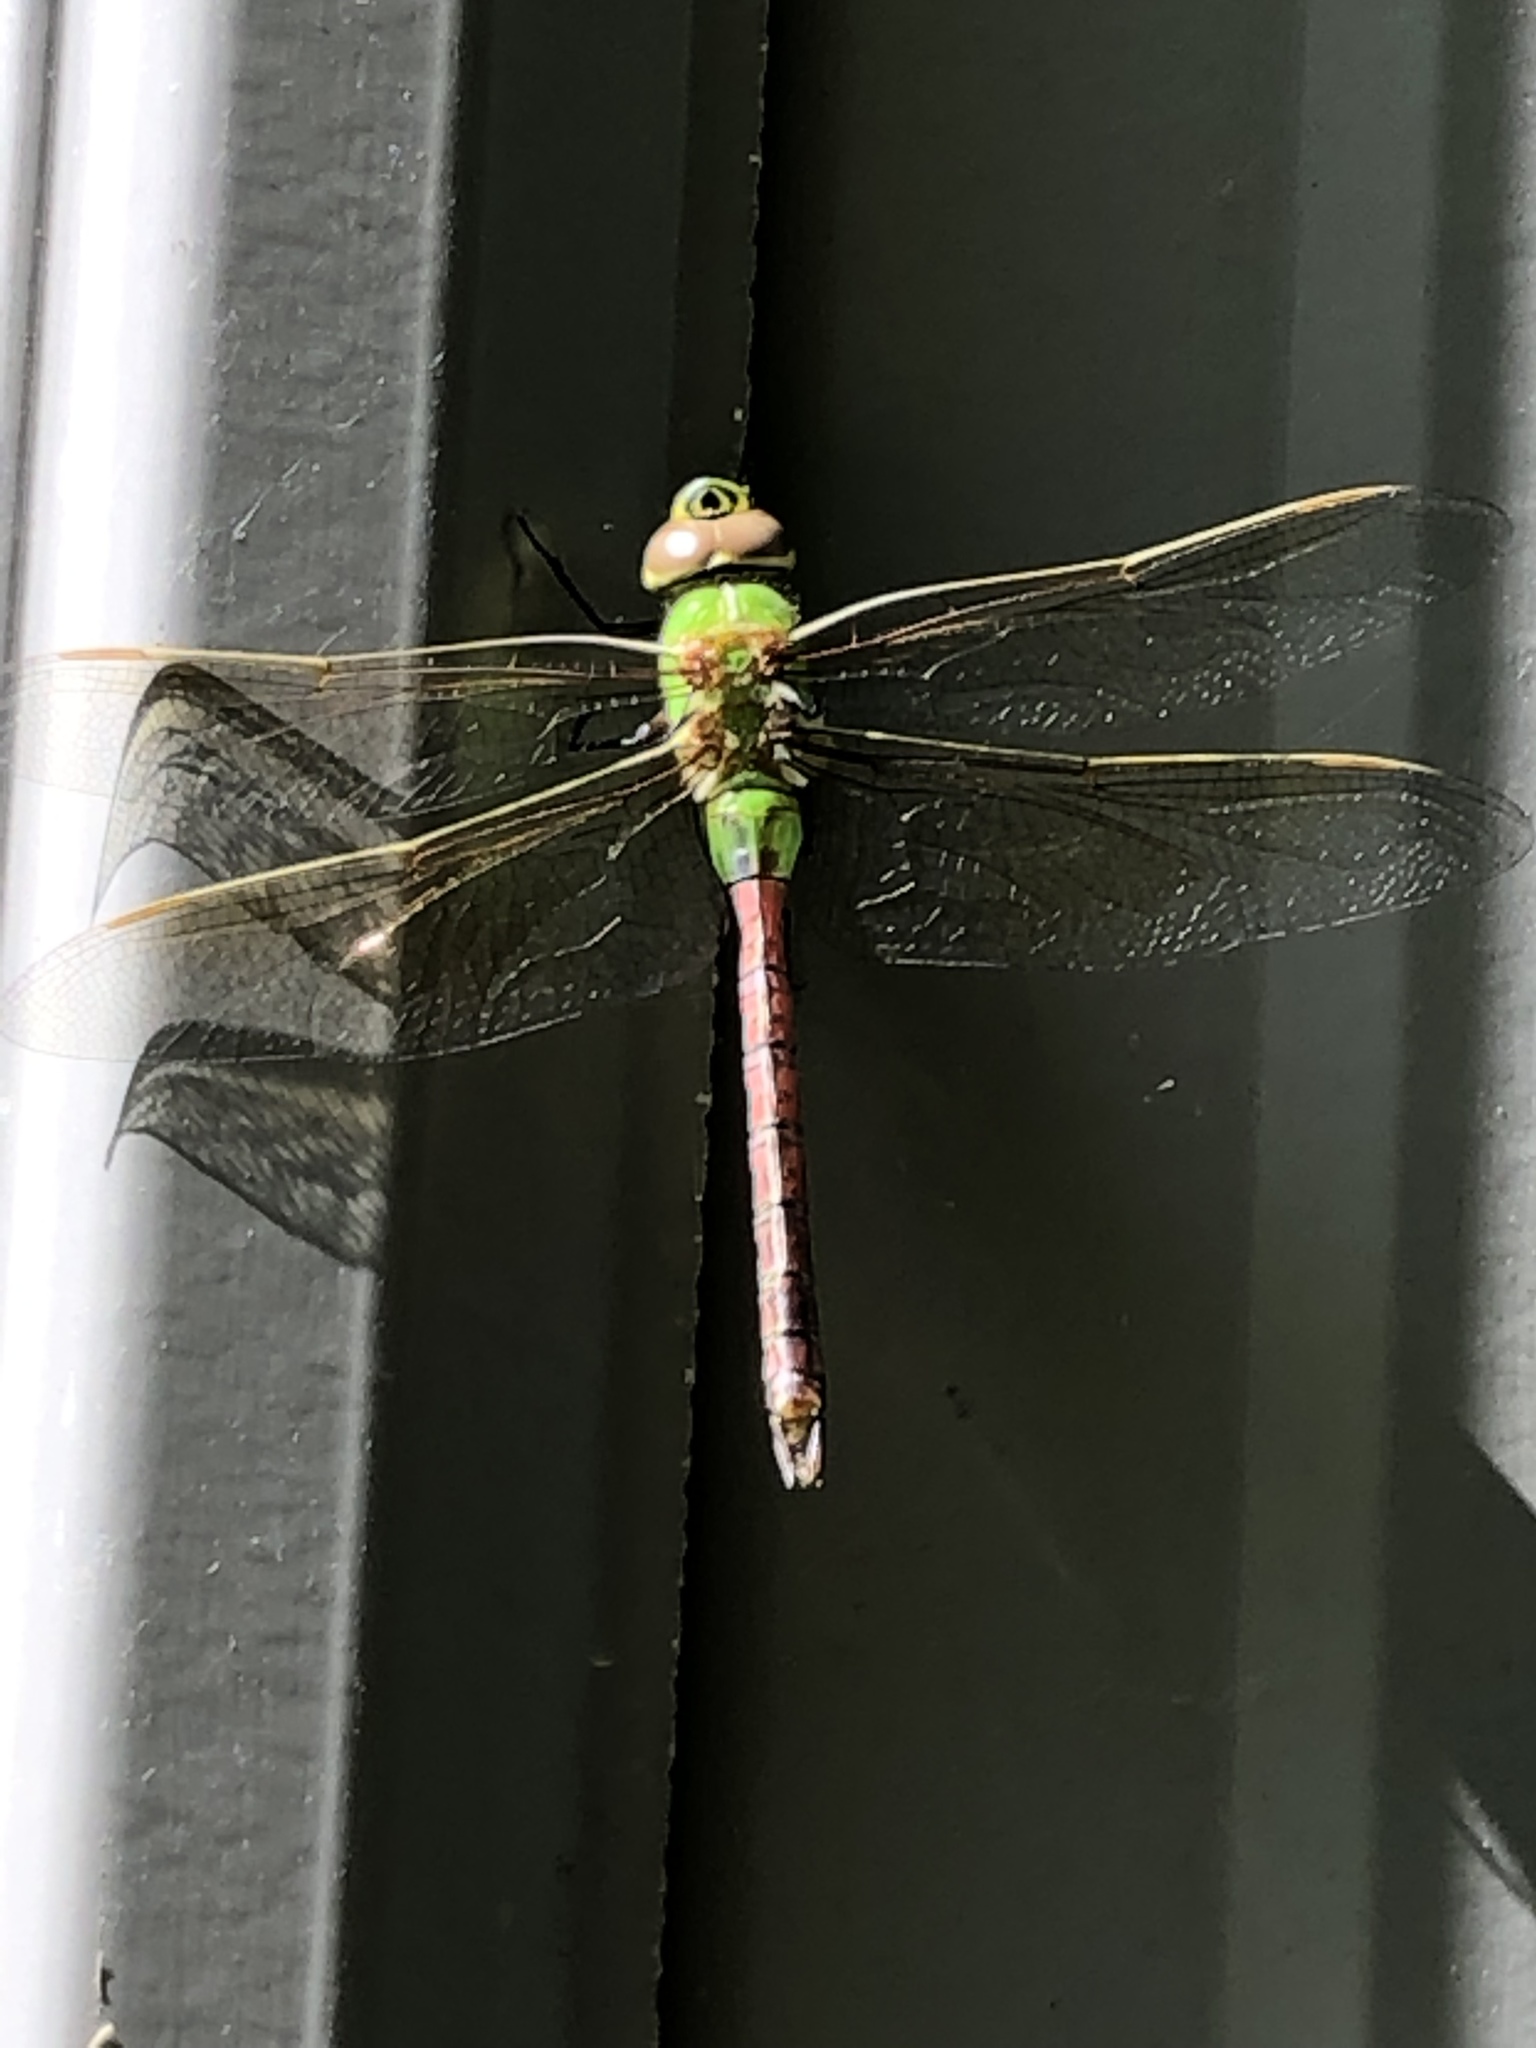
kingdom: Animalia
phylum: Arthropoda
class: Insecta
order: Odonata
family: Aeshnidae
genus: Anax
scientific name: Anax junius
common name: Common green darner
